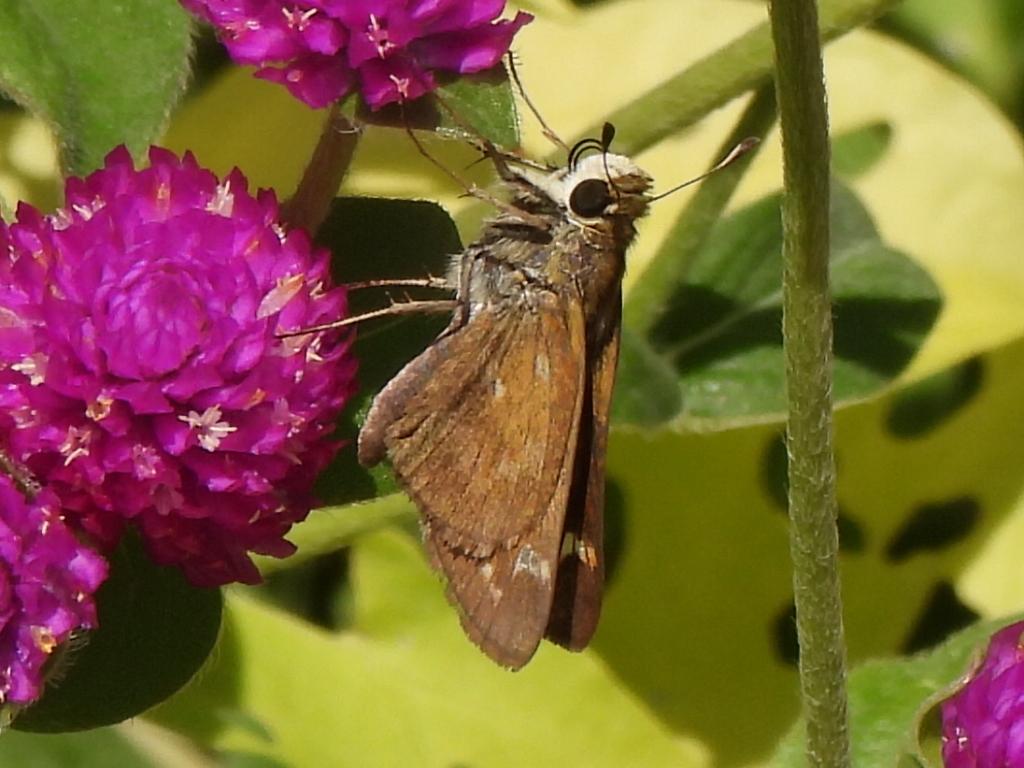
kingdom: Animalia
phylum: Arthropoda
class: Insecta
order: Lepidoptera
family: Hesperiidae
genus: Atalopedes
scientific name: Atalopedes
